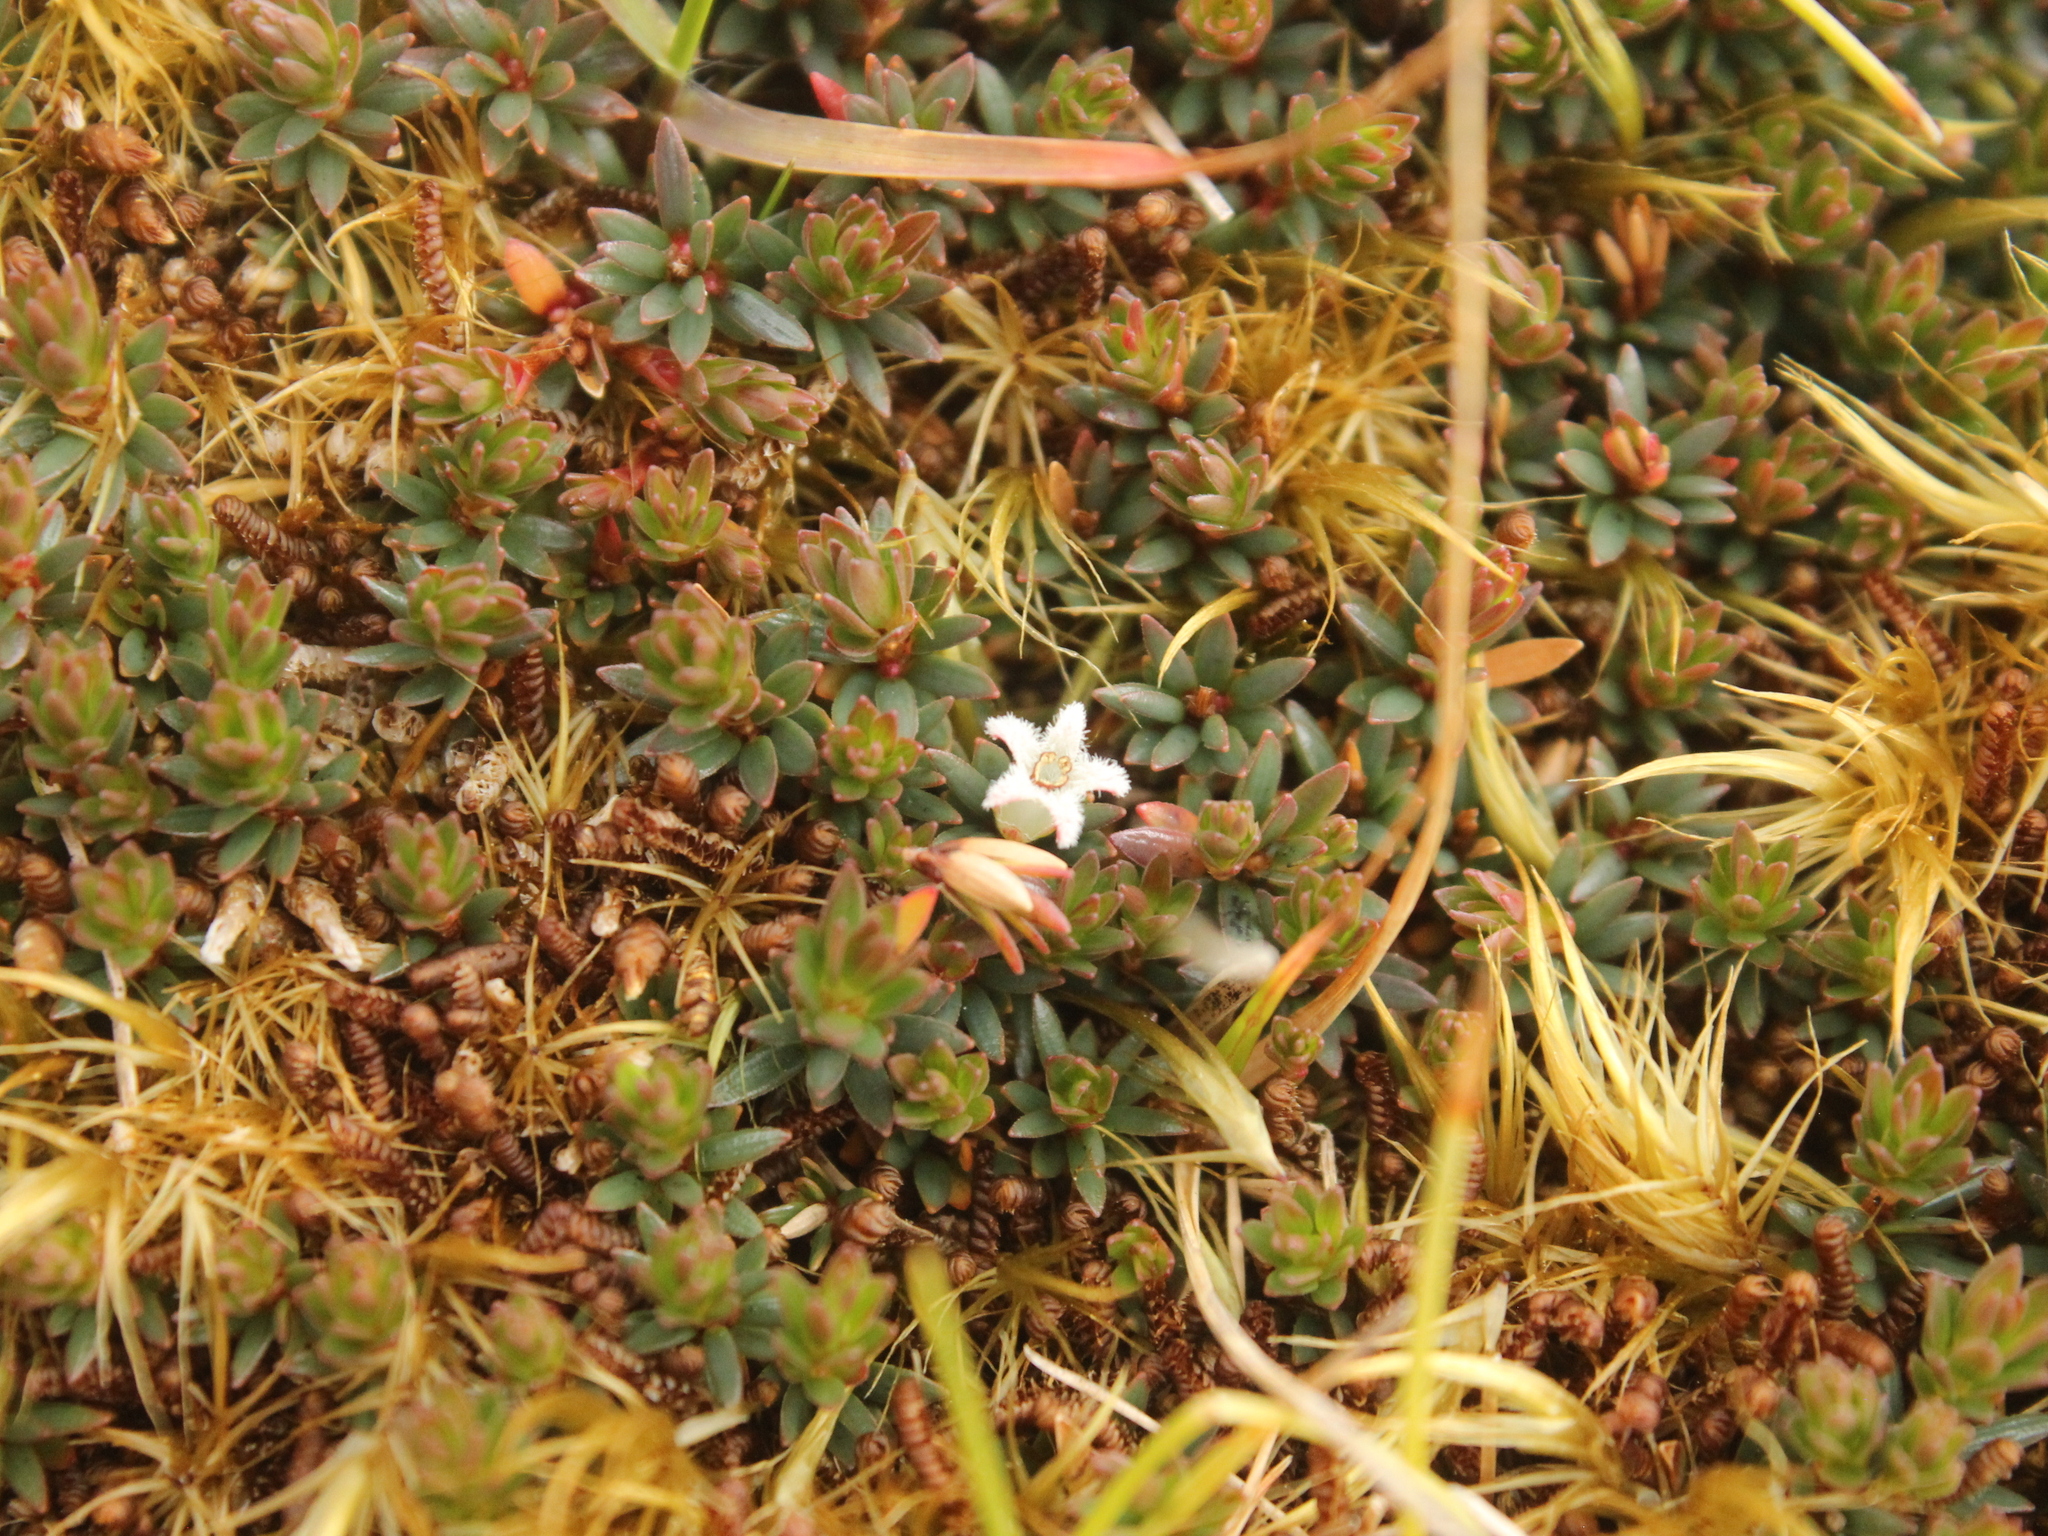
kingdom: Plantae
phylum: Tracheophyta
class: Magnoliopsida
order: Ericales
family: Ericaceae
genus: Pentachondra
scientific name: Pentachondra pumila
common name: Carpet-heath
